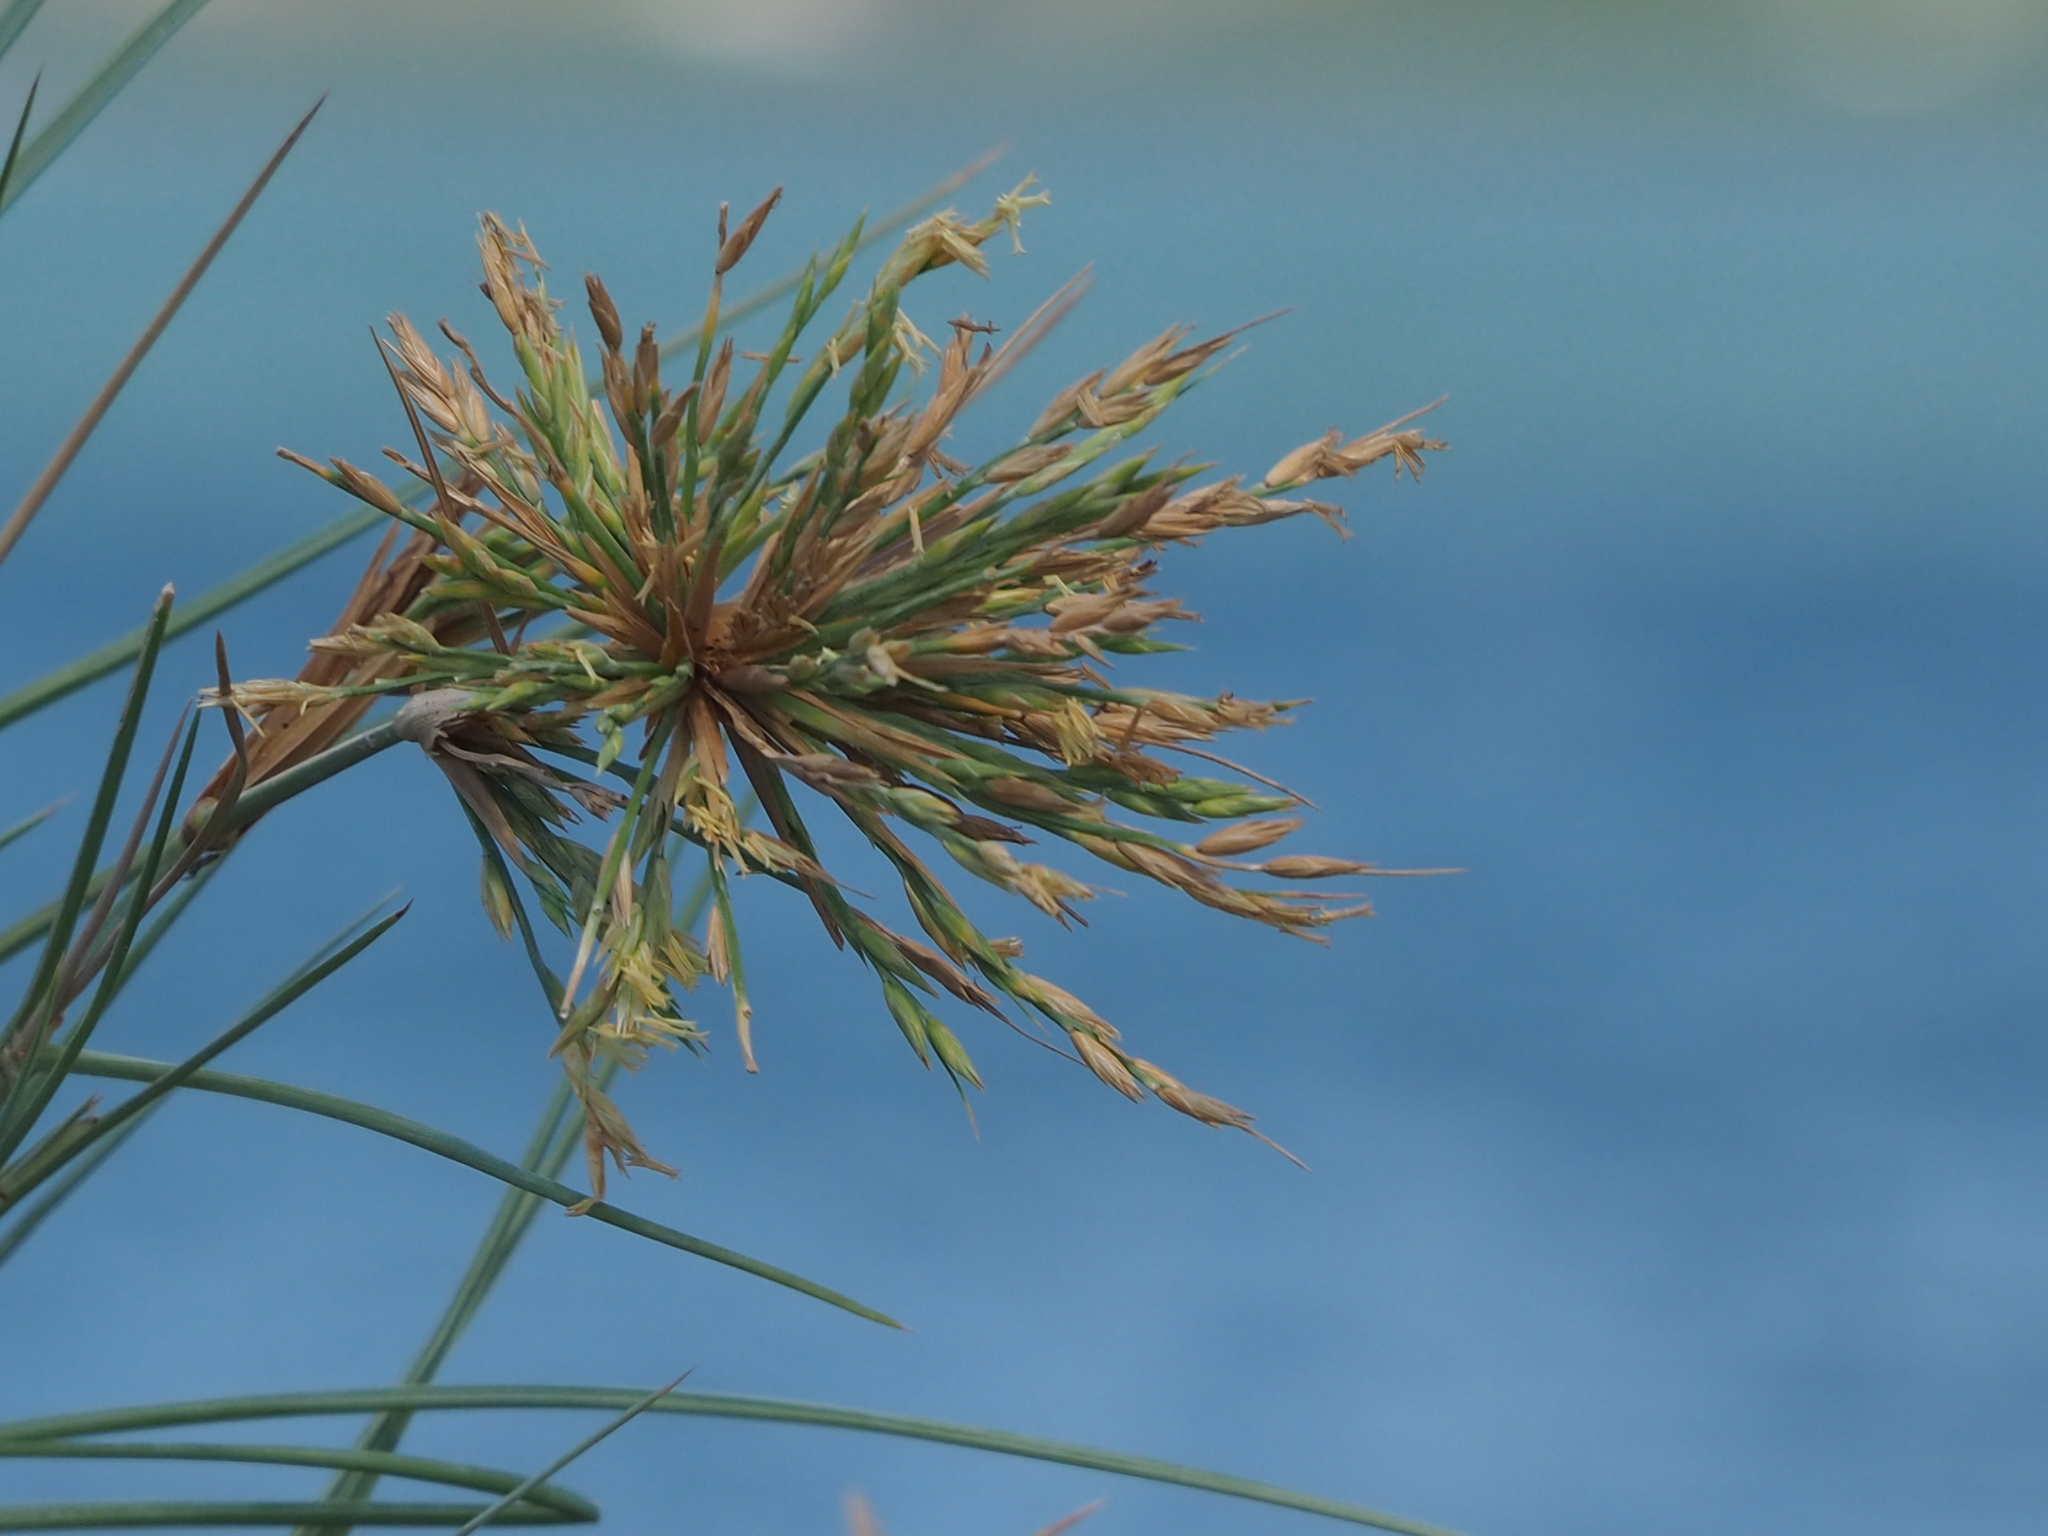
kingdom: Plantae
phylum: Tracheophyta
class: Liliopsida
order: Poales
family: Poaceae
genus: Spinifex
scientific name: Spinifex littoreus
